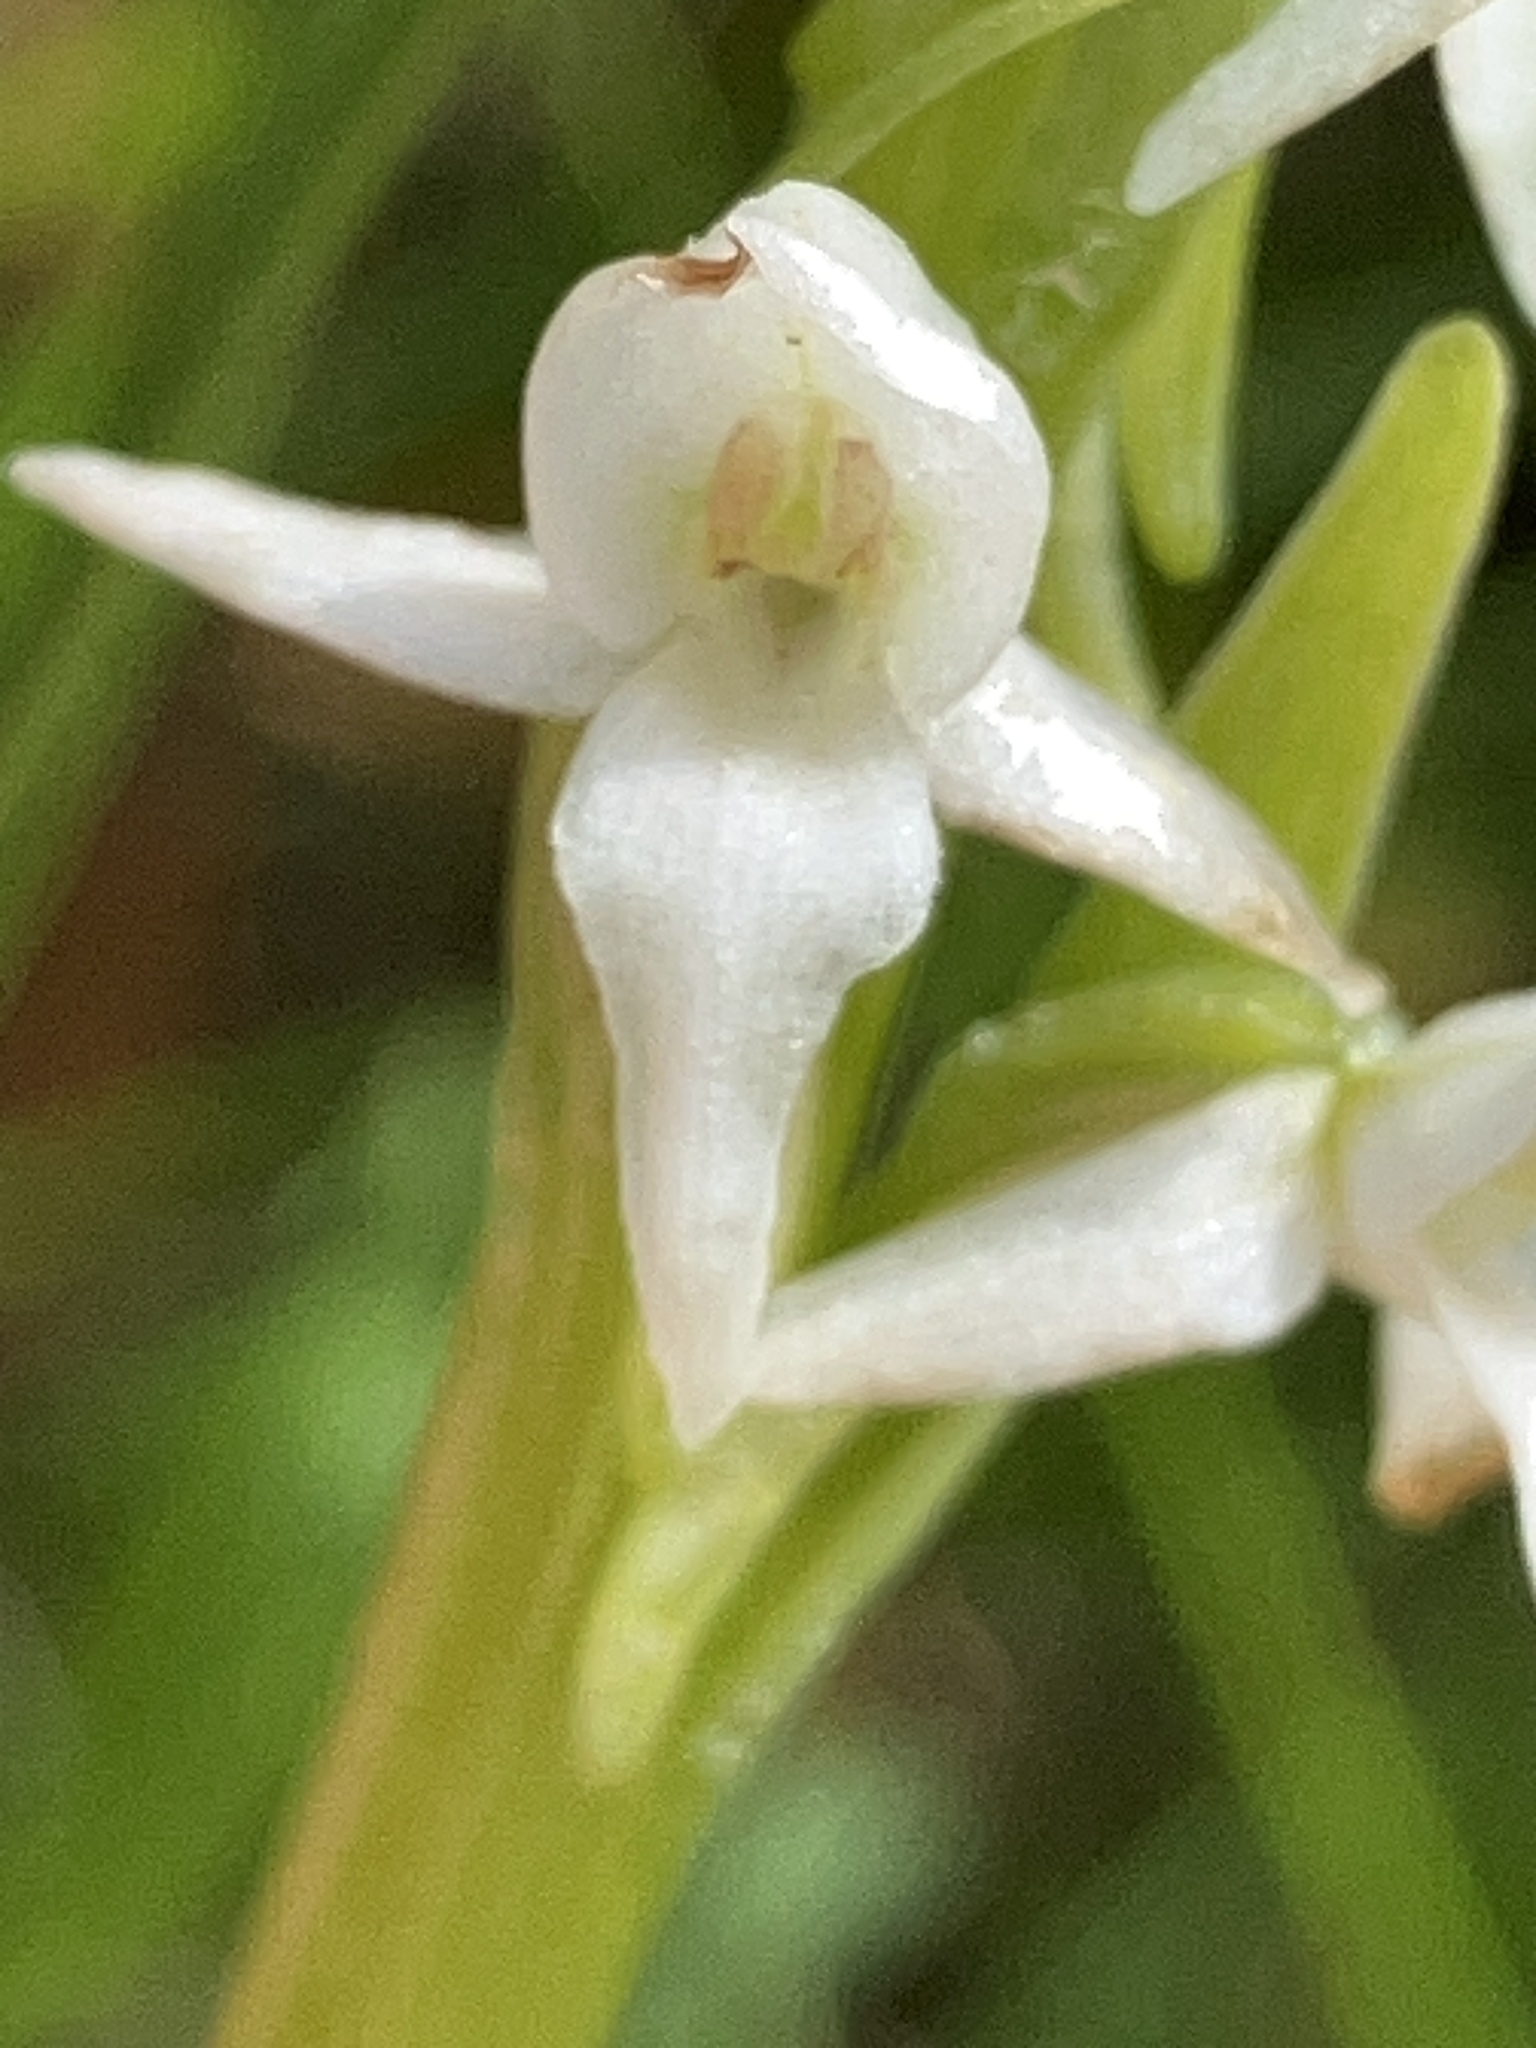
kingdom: Plantae
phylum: Tracheophyta
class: Liliopsida
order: Asparagales
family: Orchidaceae
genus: Platanthera
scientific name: Platanthera dilatata
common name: Bog candles
